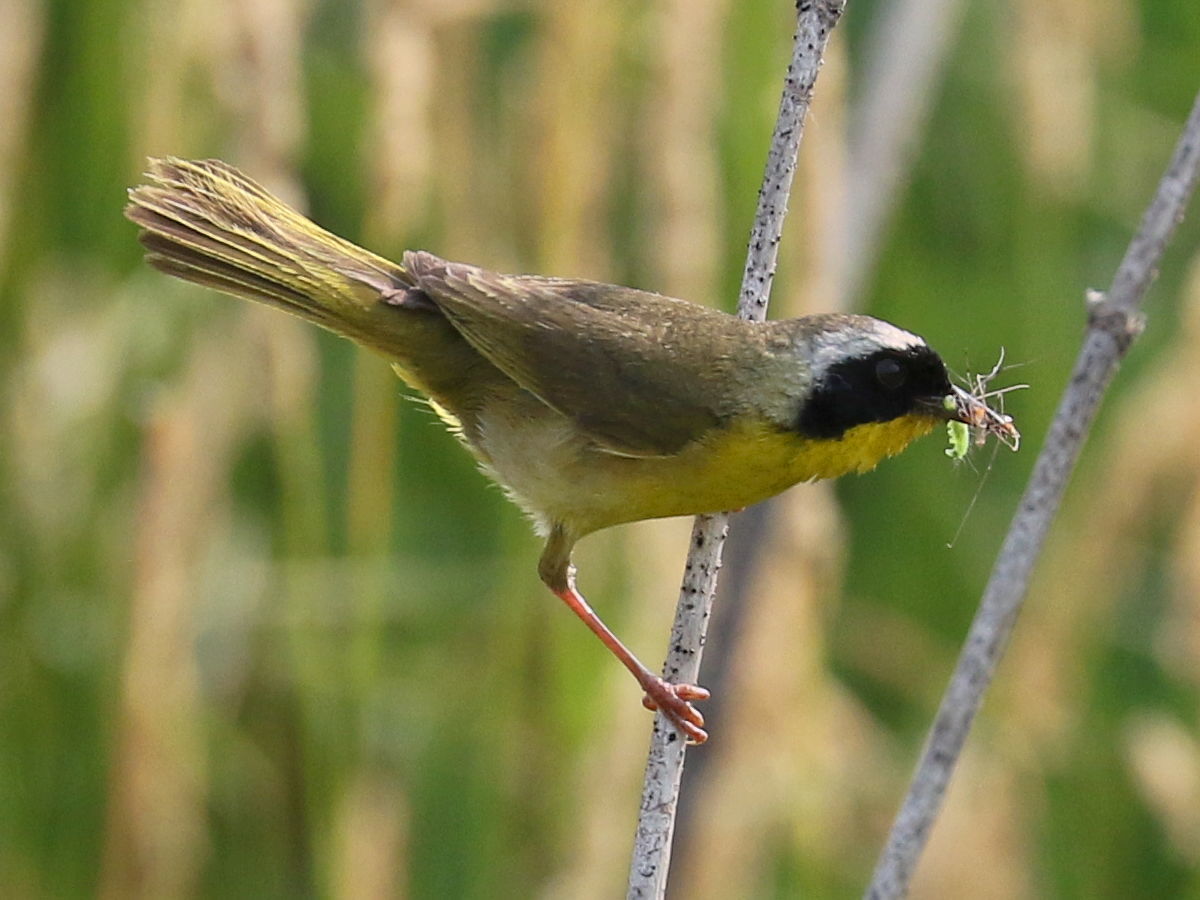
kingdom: Animalia
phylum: Chordata
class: Aves
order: Passeriformes
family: Parulidae
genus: Geothlypis
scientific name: Geothlypis trichas
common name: Common yellowthroat
